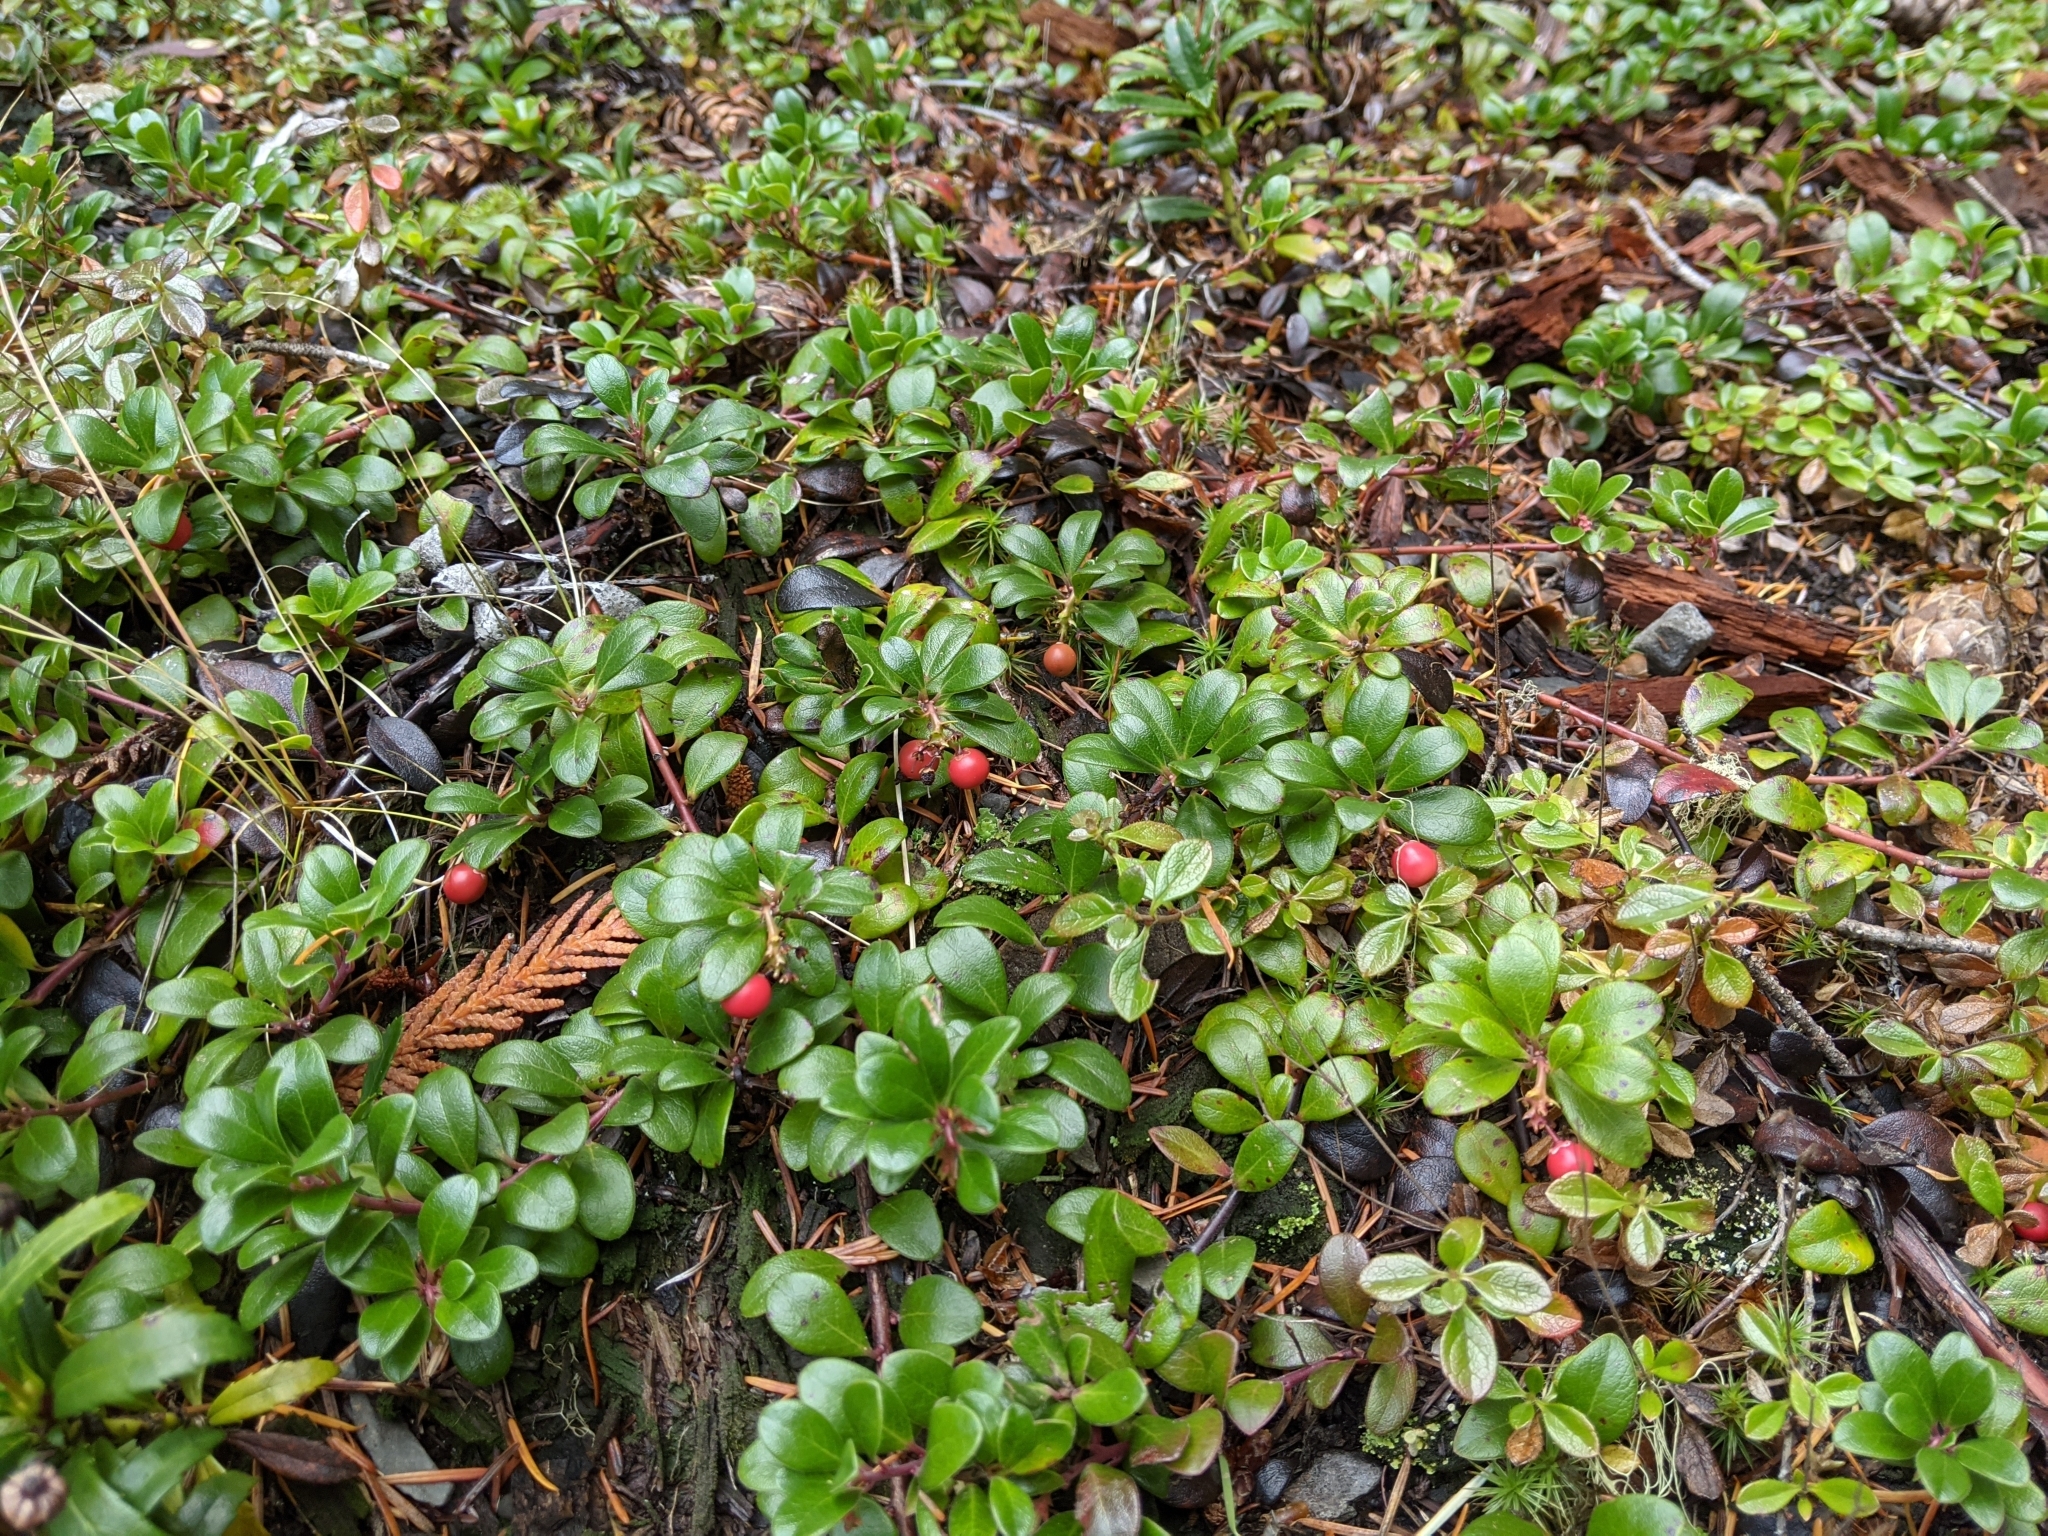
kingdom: Plantae
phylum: Tracheophyta
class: Magnoliopsida
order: Ericales
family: Ericaceae
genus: Arctostaphylos
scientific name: Arctostaphylos uva-ursi
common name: Bearberry
